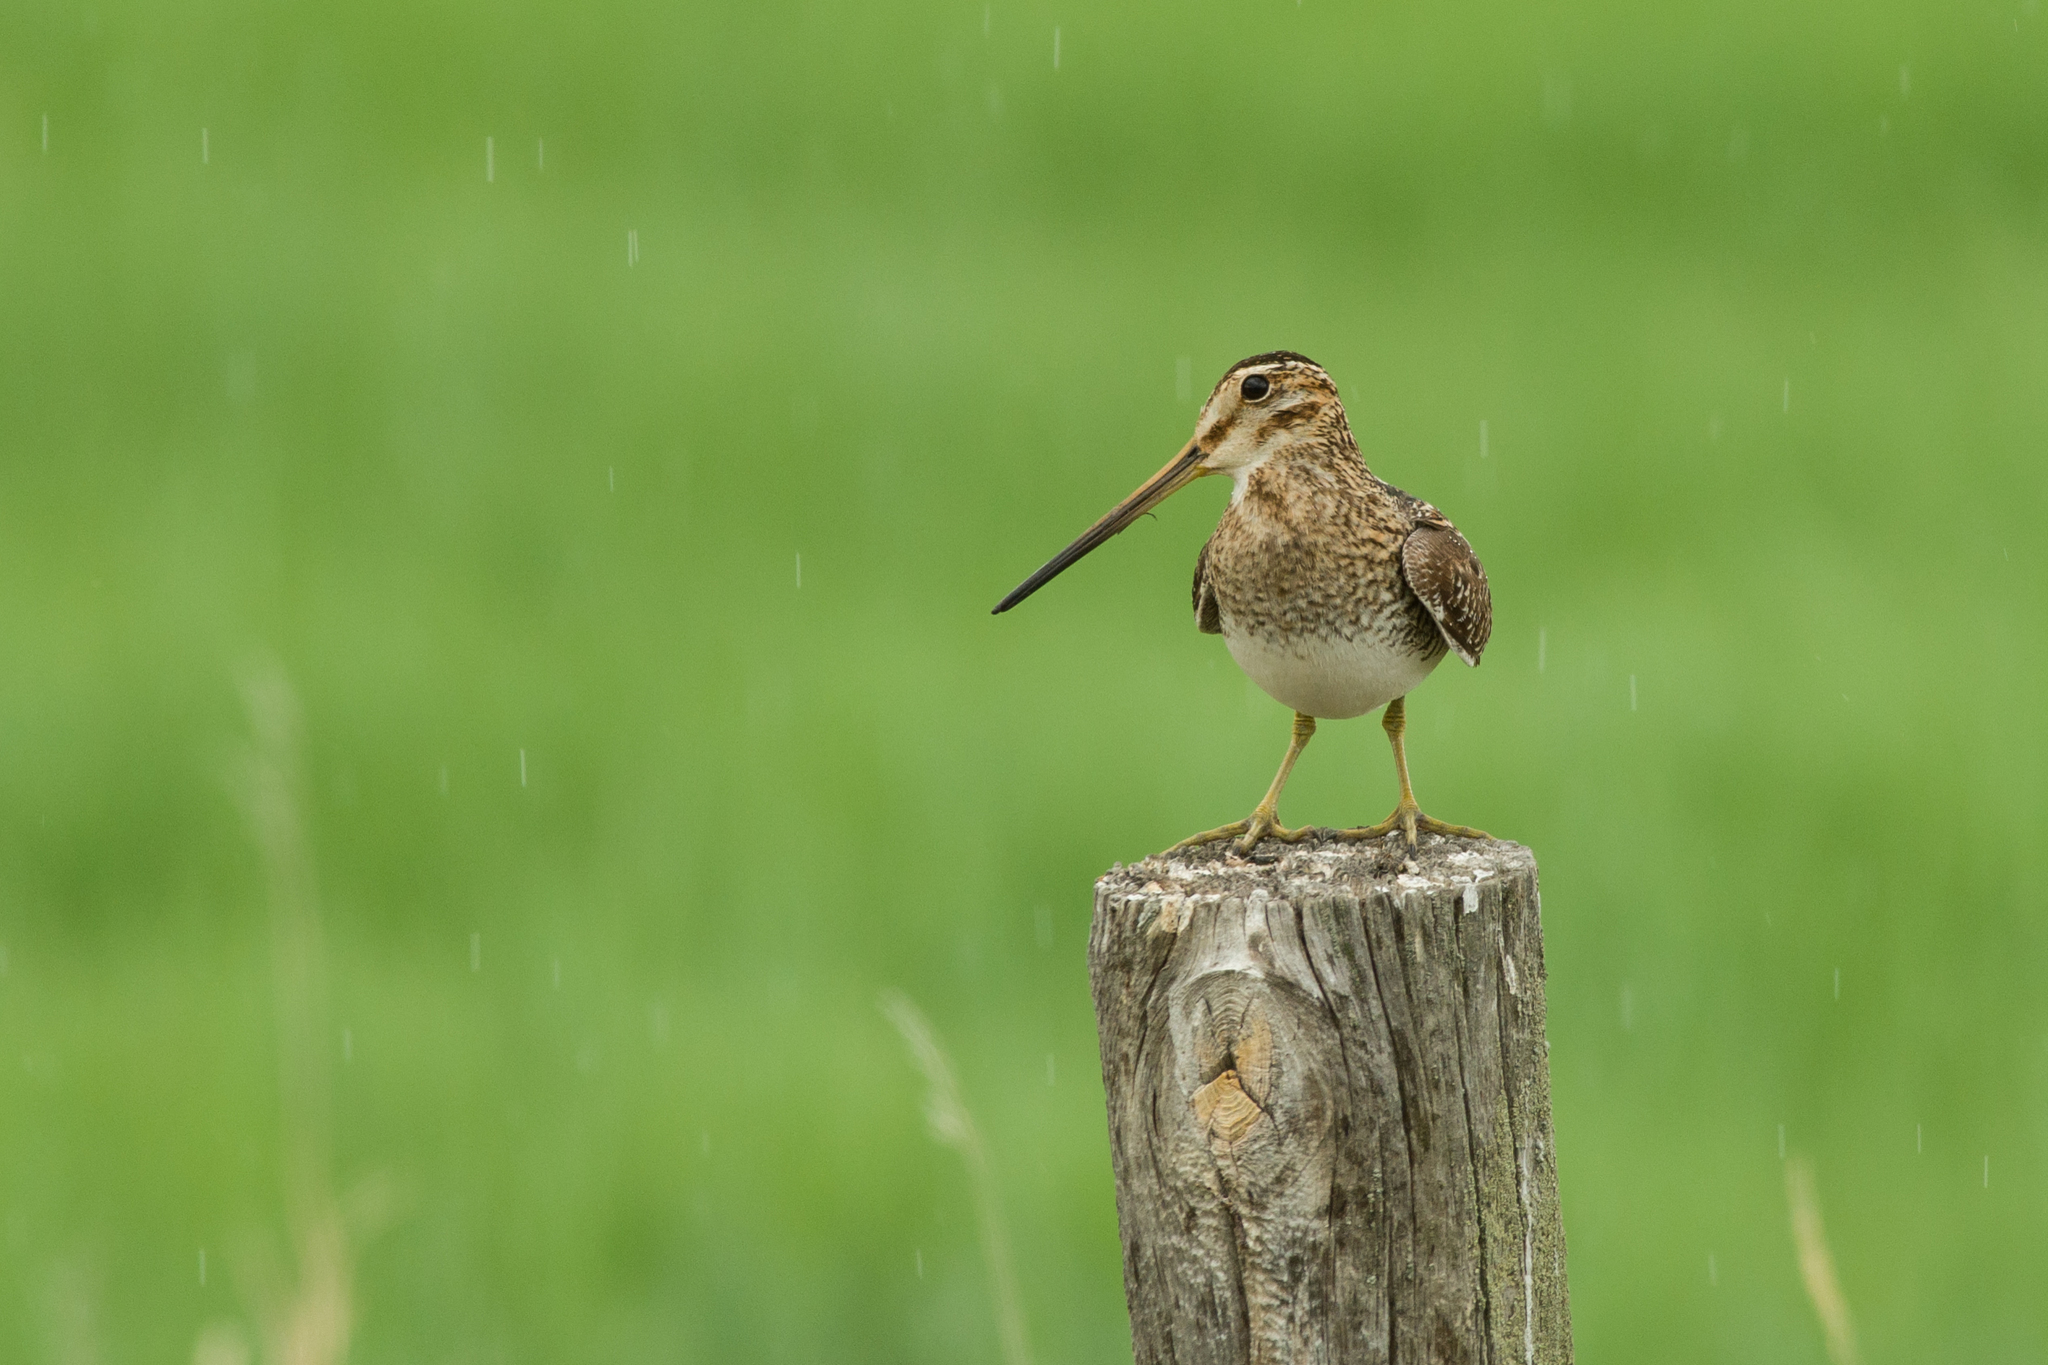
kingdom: Animalia
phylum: Chordata
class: Aves
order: Charadriiformes
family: Scolopacidae
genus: Gallinago
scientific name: Gallinago delicata
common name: Wilson's snipe
